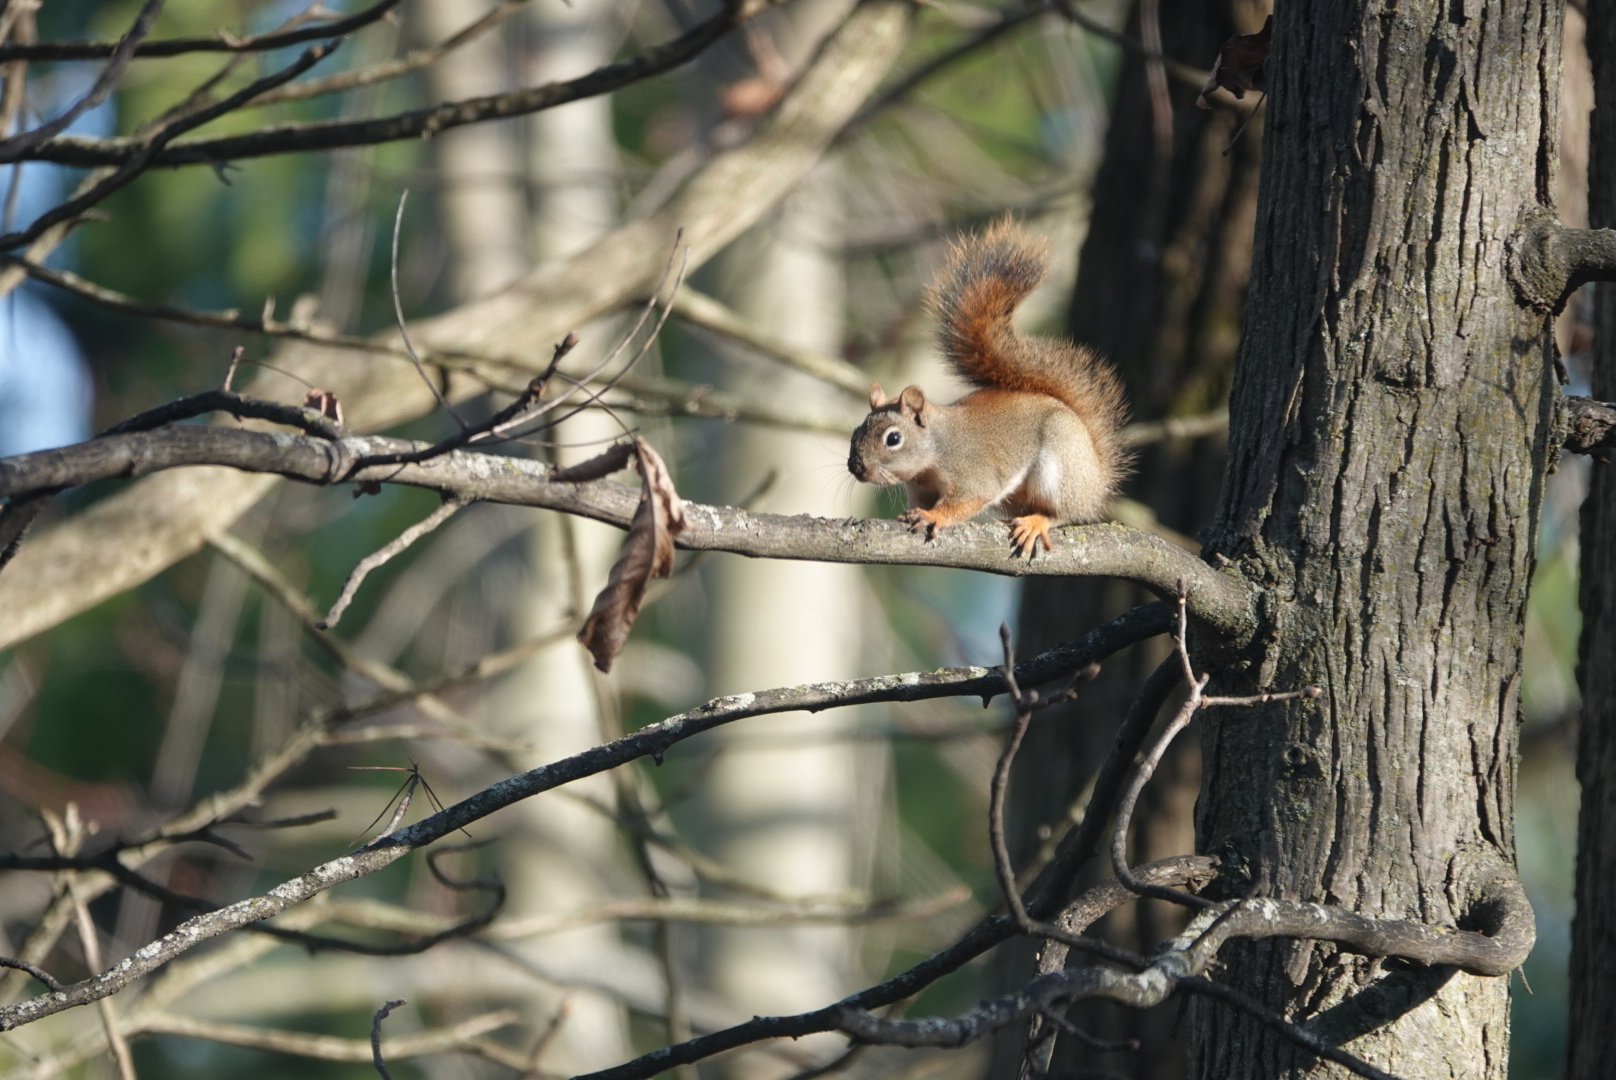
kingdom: Animalia
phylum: Chordata
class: Mammalia
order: Rodentia
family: Sciuridae
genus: Tamiasciurus
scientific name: Tamiasciurus hudsonicus
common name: Red squirrel
